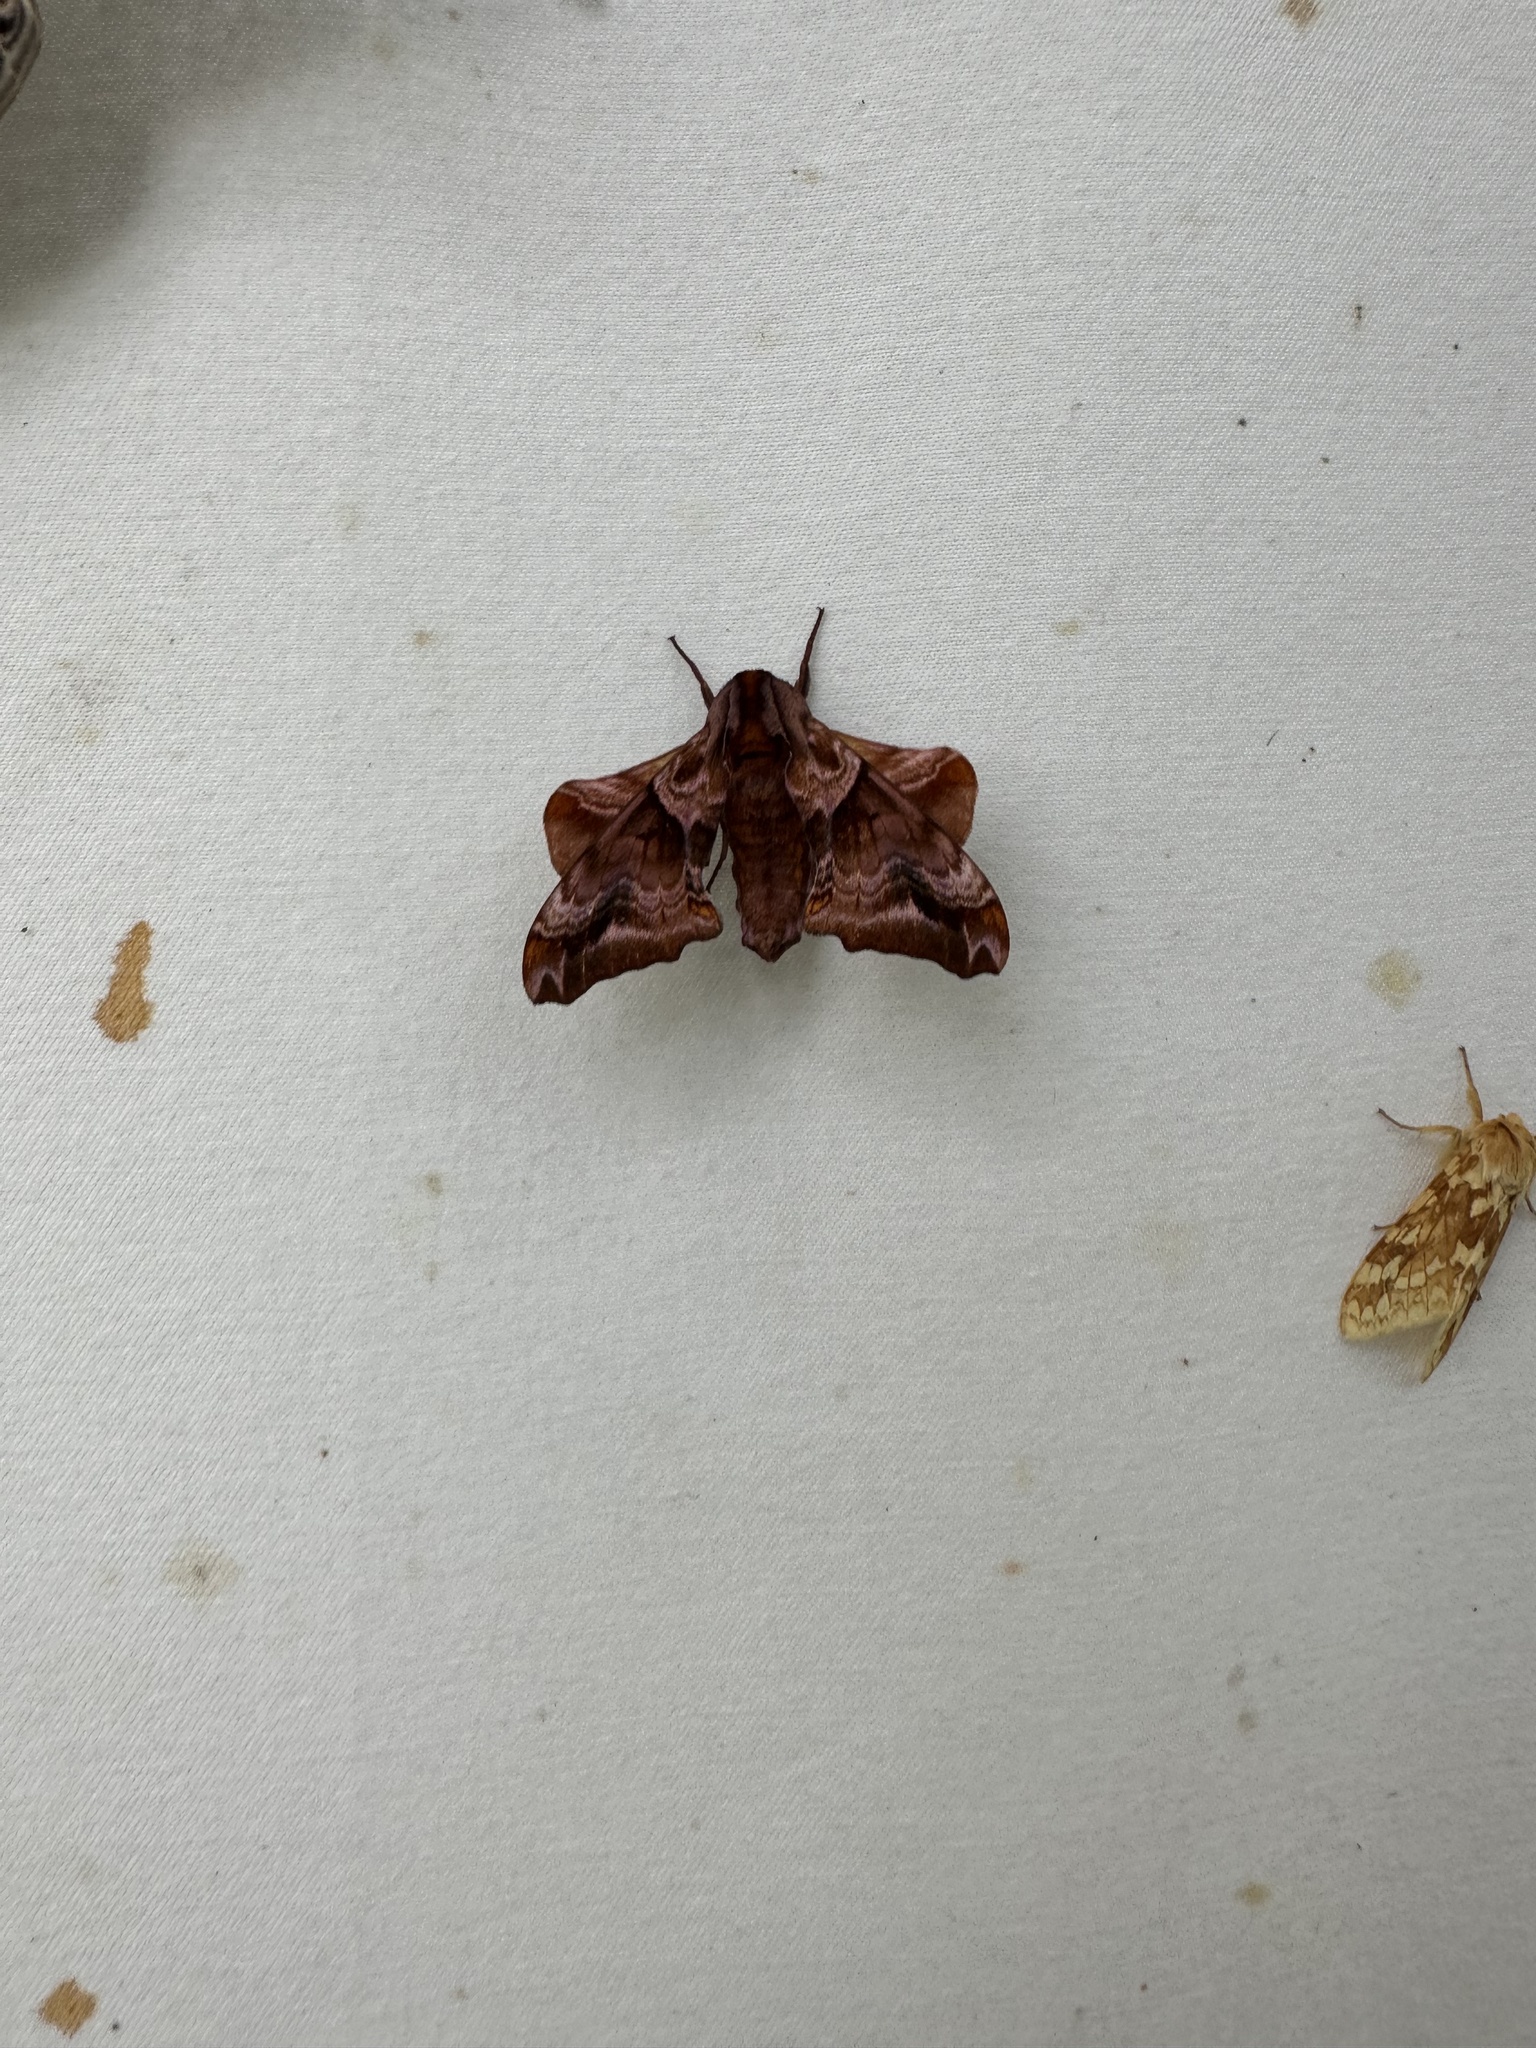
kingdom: Animalia
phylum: Arthropoda
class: Insecta
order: Lepidoptera
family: Sphingidae
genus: Paonias
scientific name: Paonias myops
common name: Small-eyed sphinx
